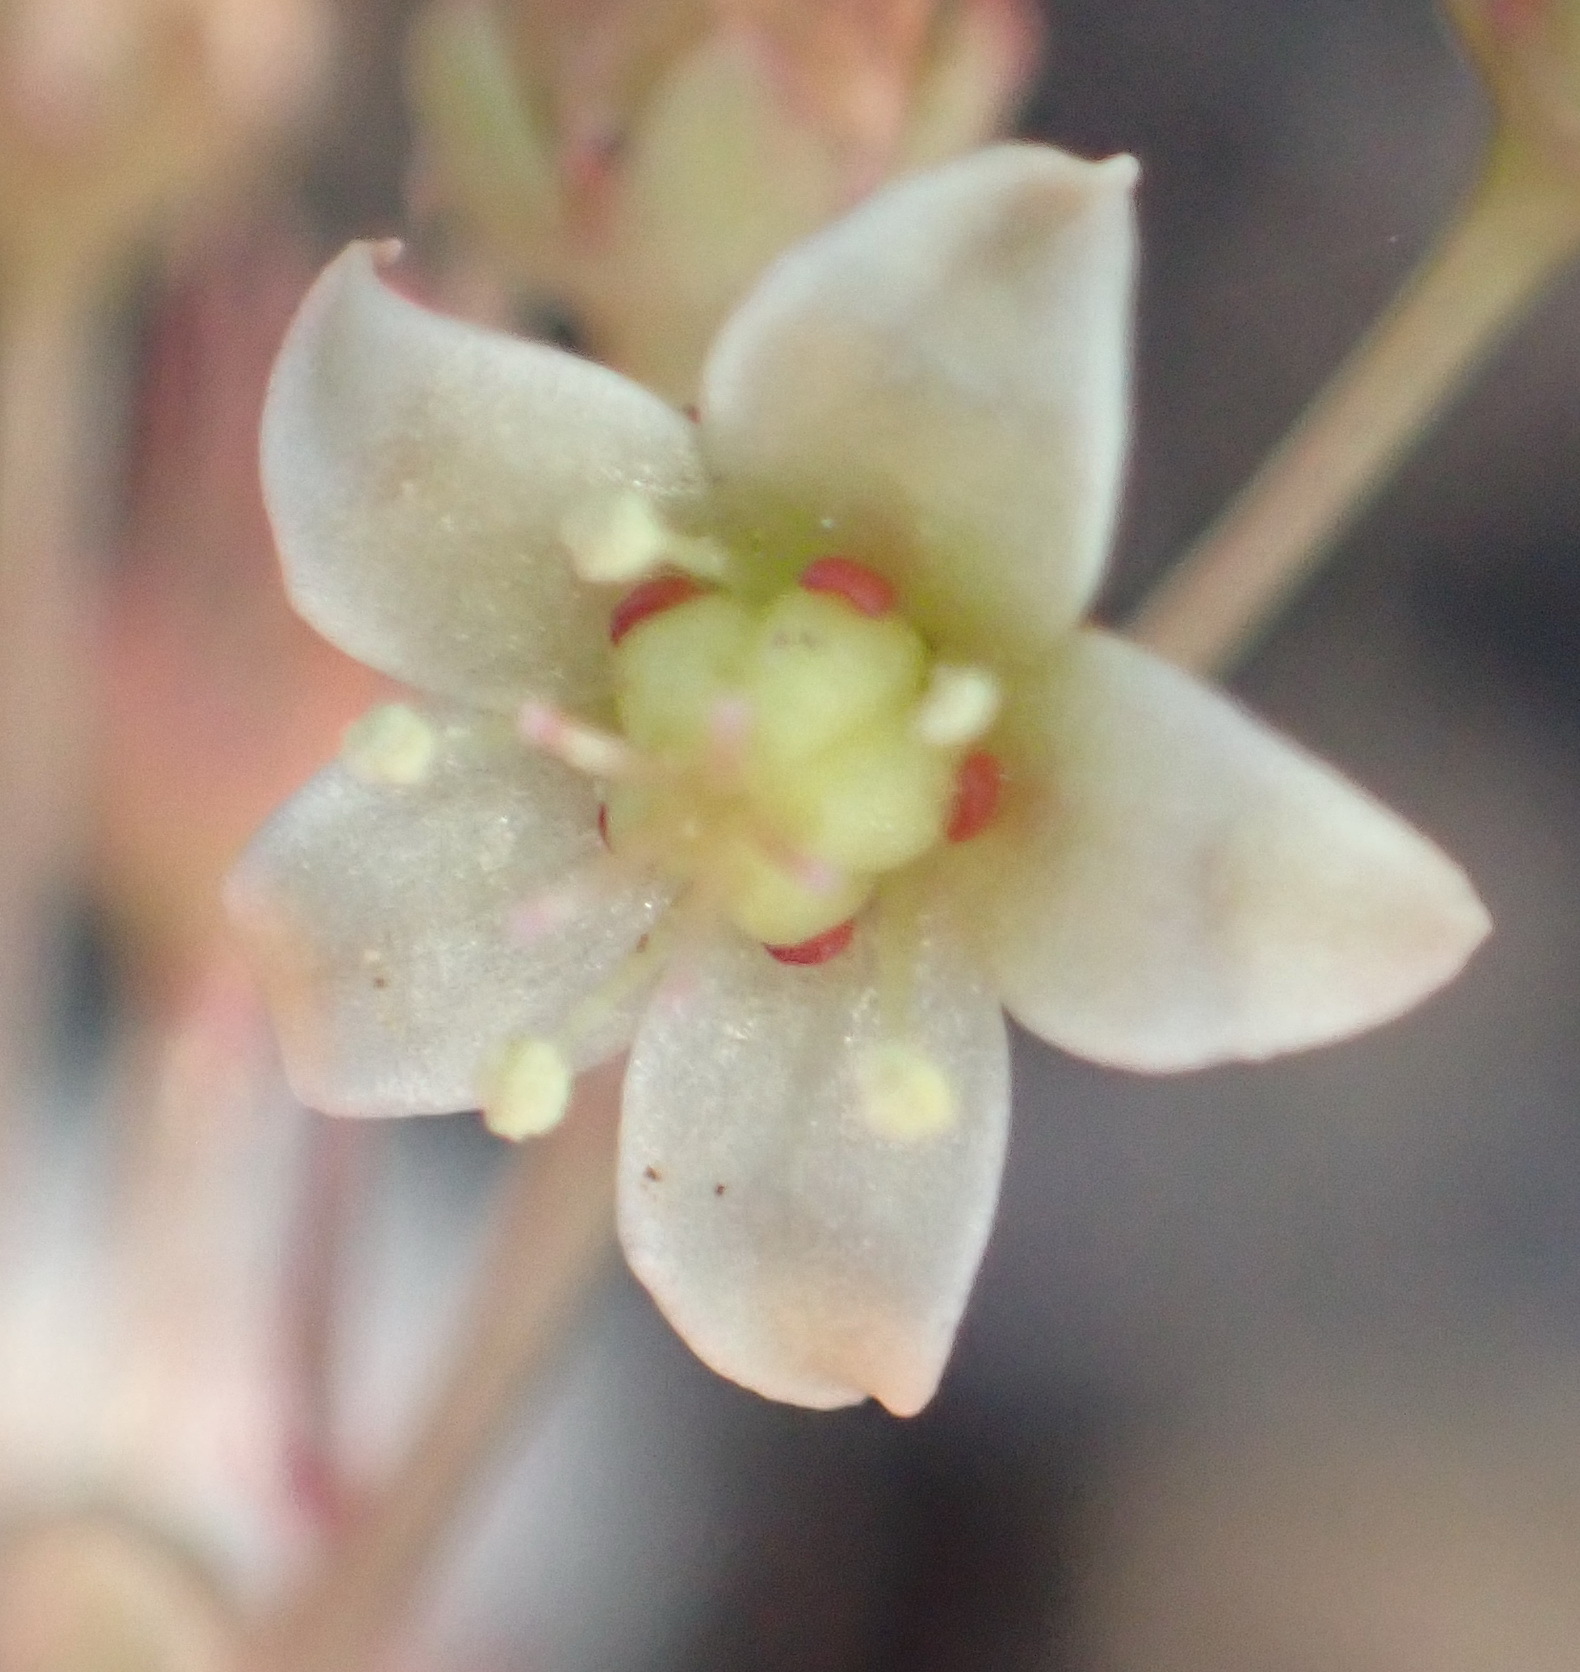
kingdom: Plantae
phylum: Tracheophyta
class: Magnoliopsida
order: Saxifragales
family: Crassulaceae
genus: Crassula
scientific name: Crassula umbella
